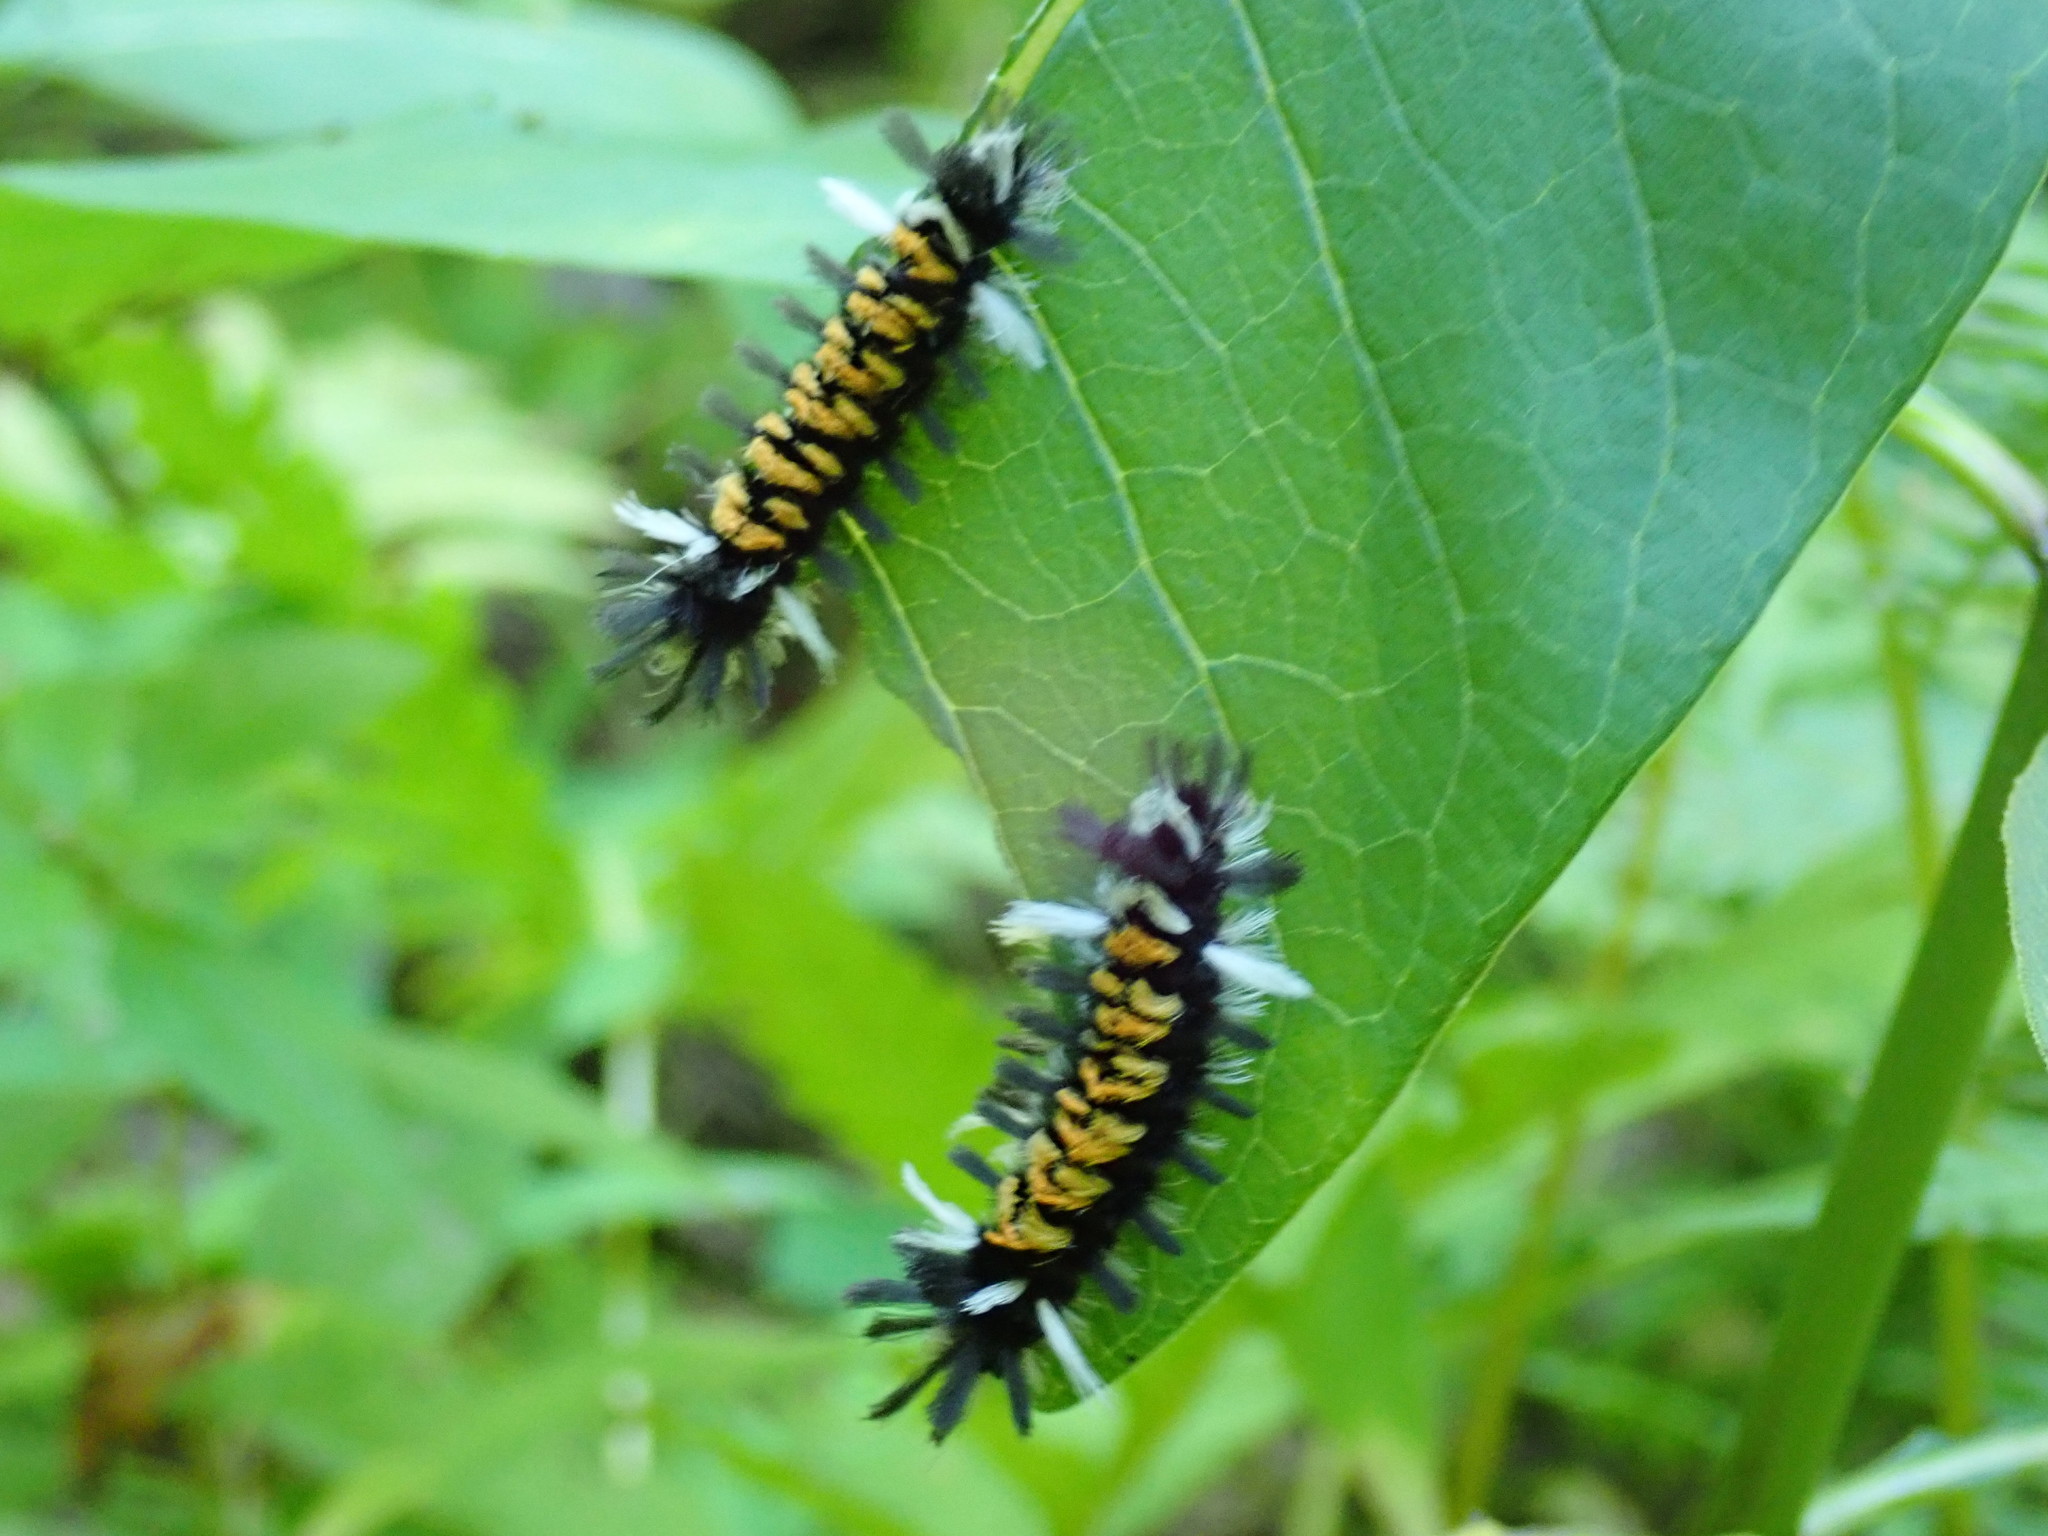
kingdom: Animalia
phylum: Arthropoda
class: Insecta
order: Lepidoptera
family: Erebidae
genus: Euchaetes
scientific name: Euchaetes egle
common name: Milkweed tussock moth
